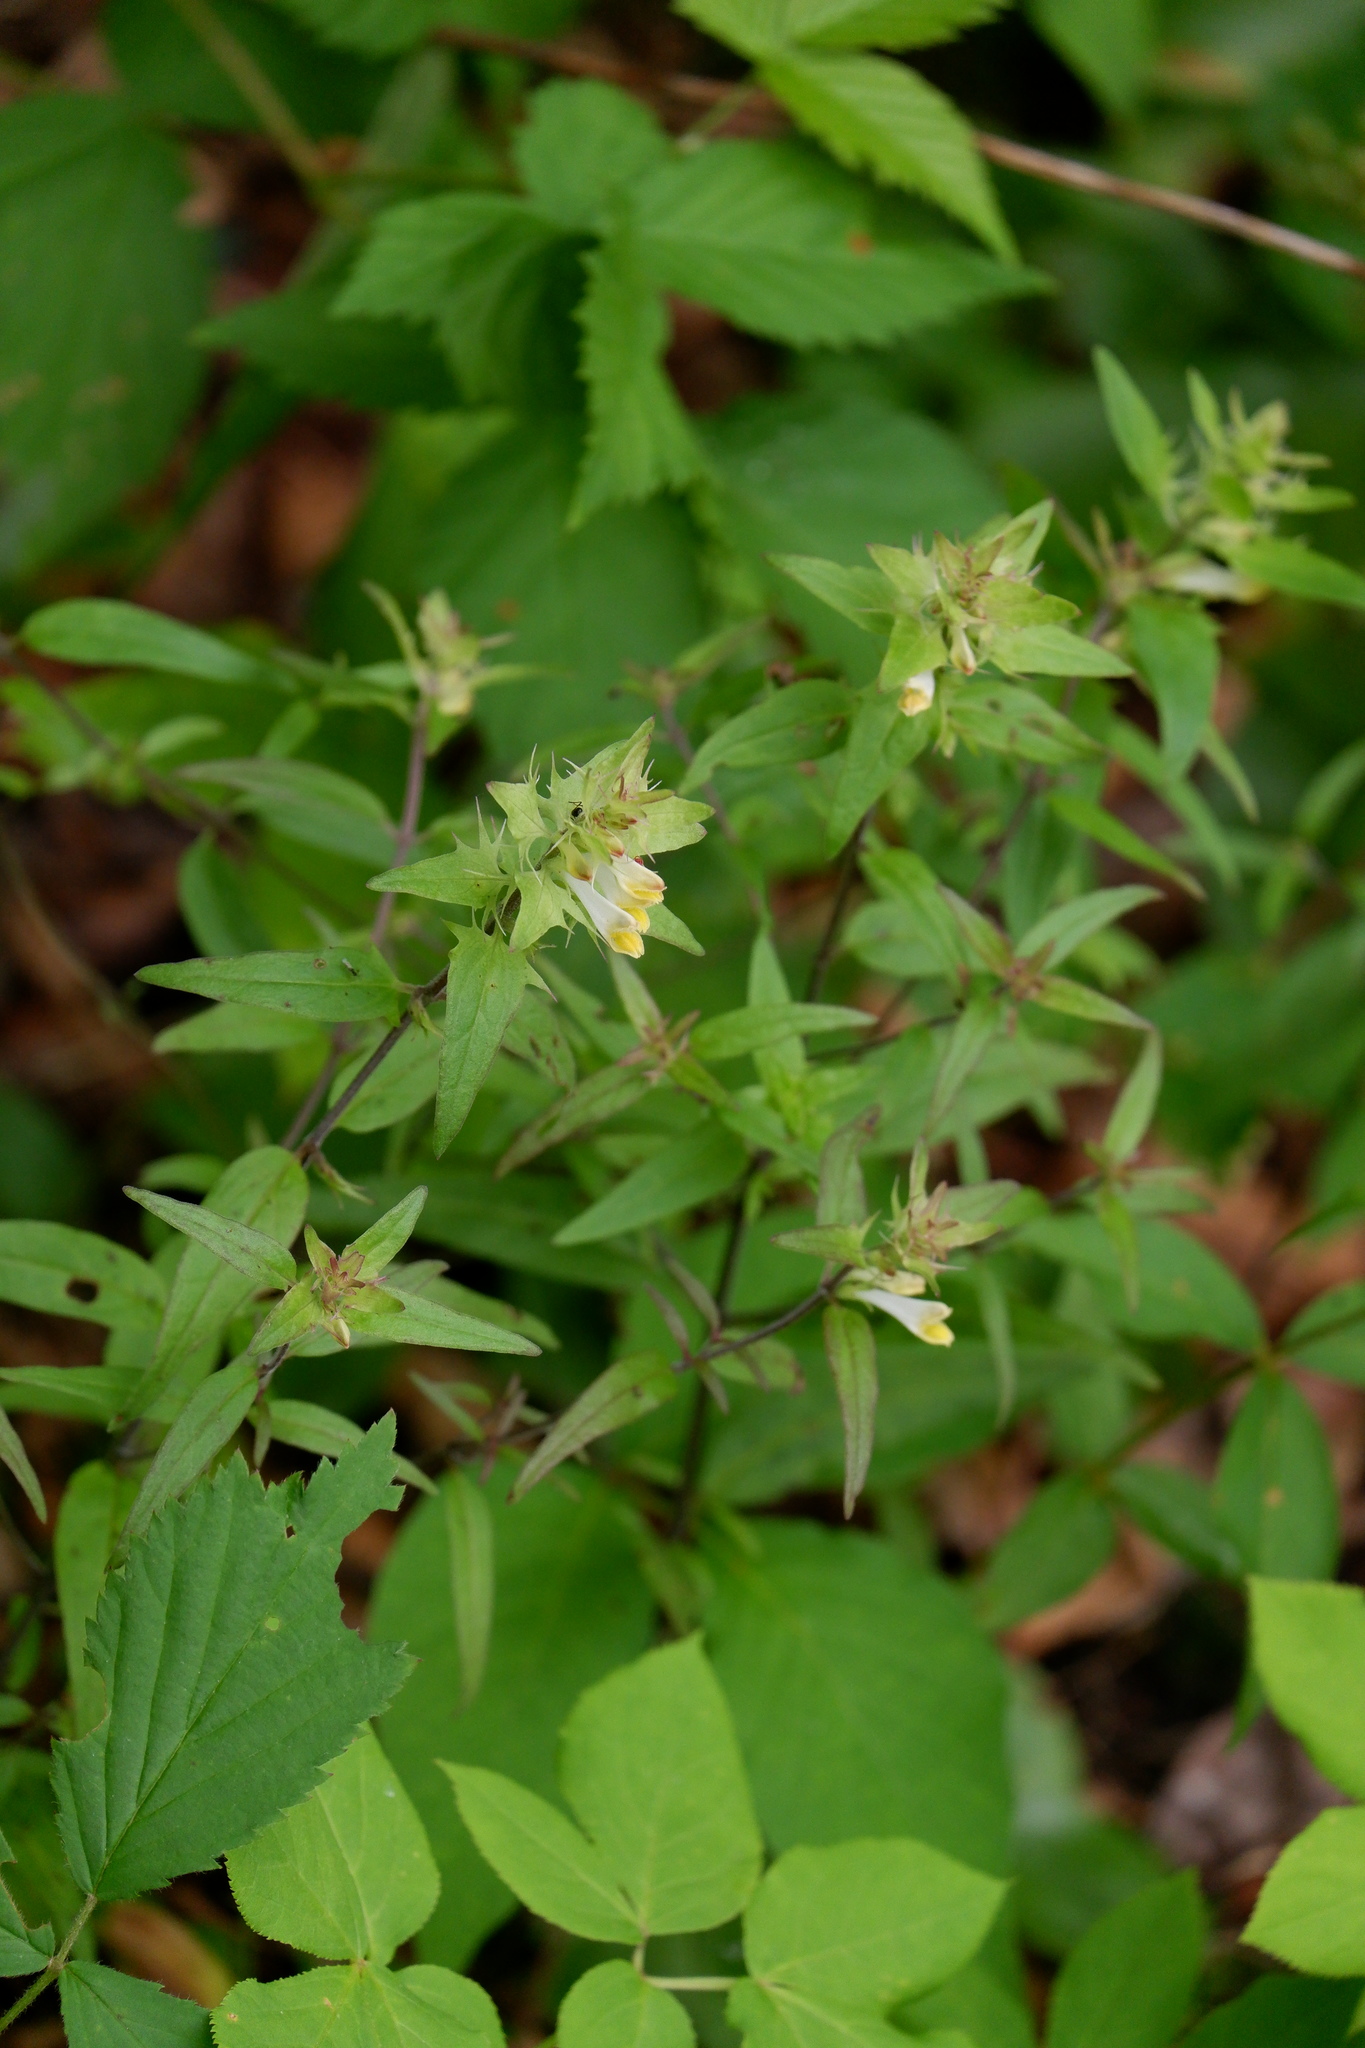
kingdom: Plantae
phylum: Tracheophyta
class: Magnoliopsida
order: Lamiales
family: Orobanchaceae
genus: Melampyrum
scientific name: Melampyrum lineare
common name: American cow-wheat
